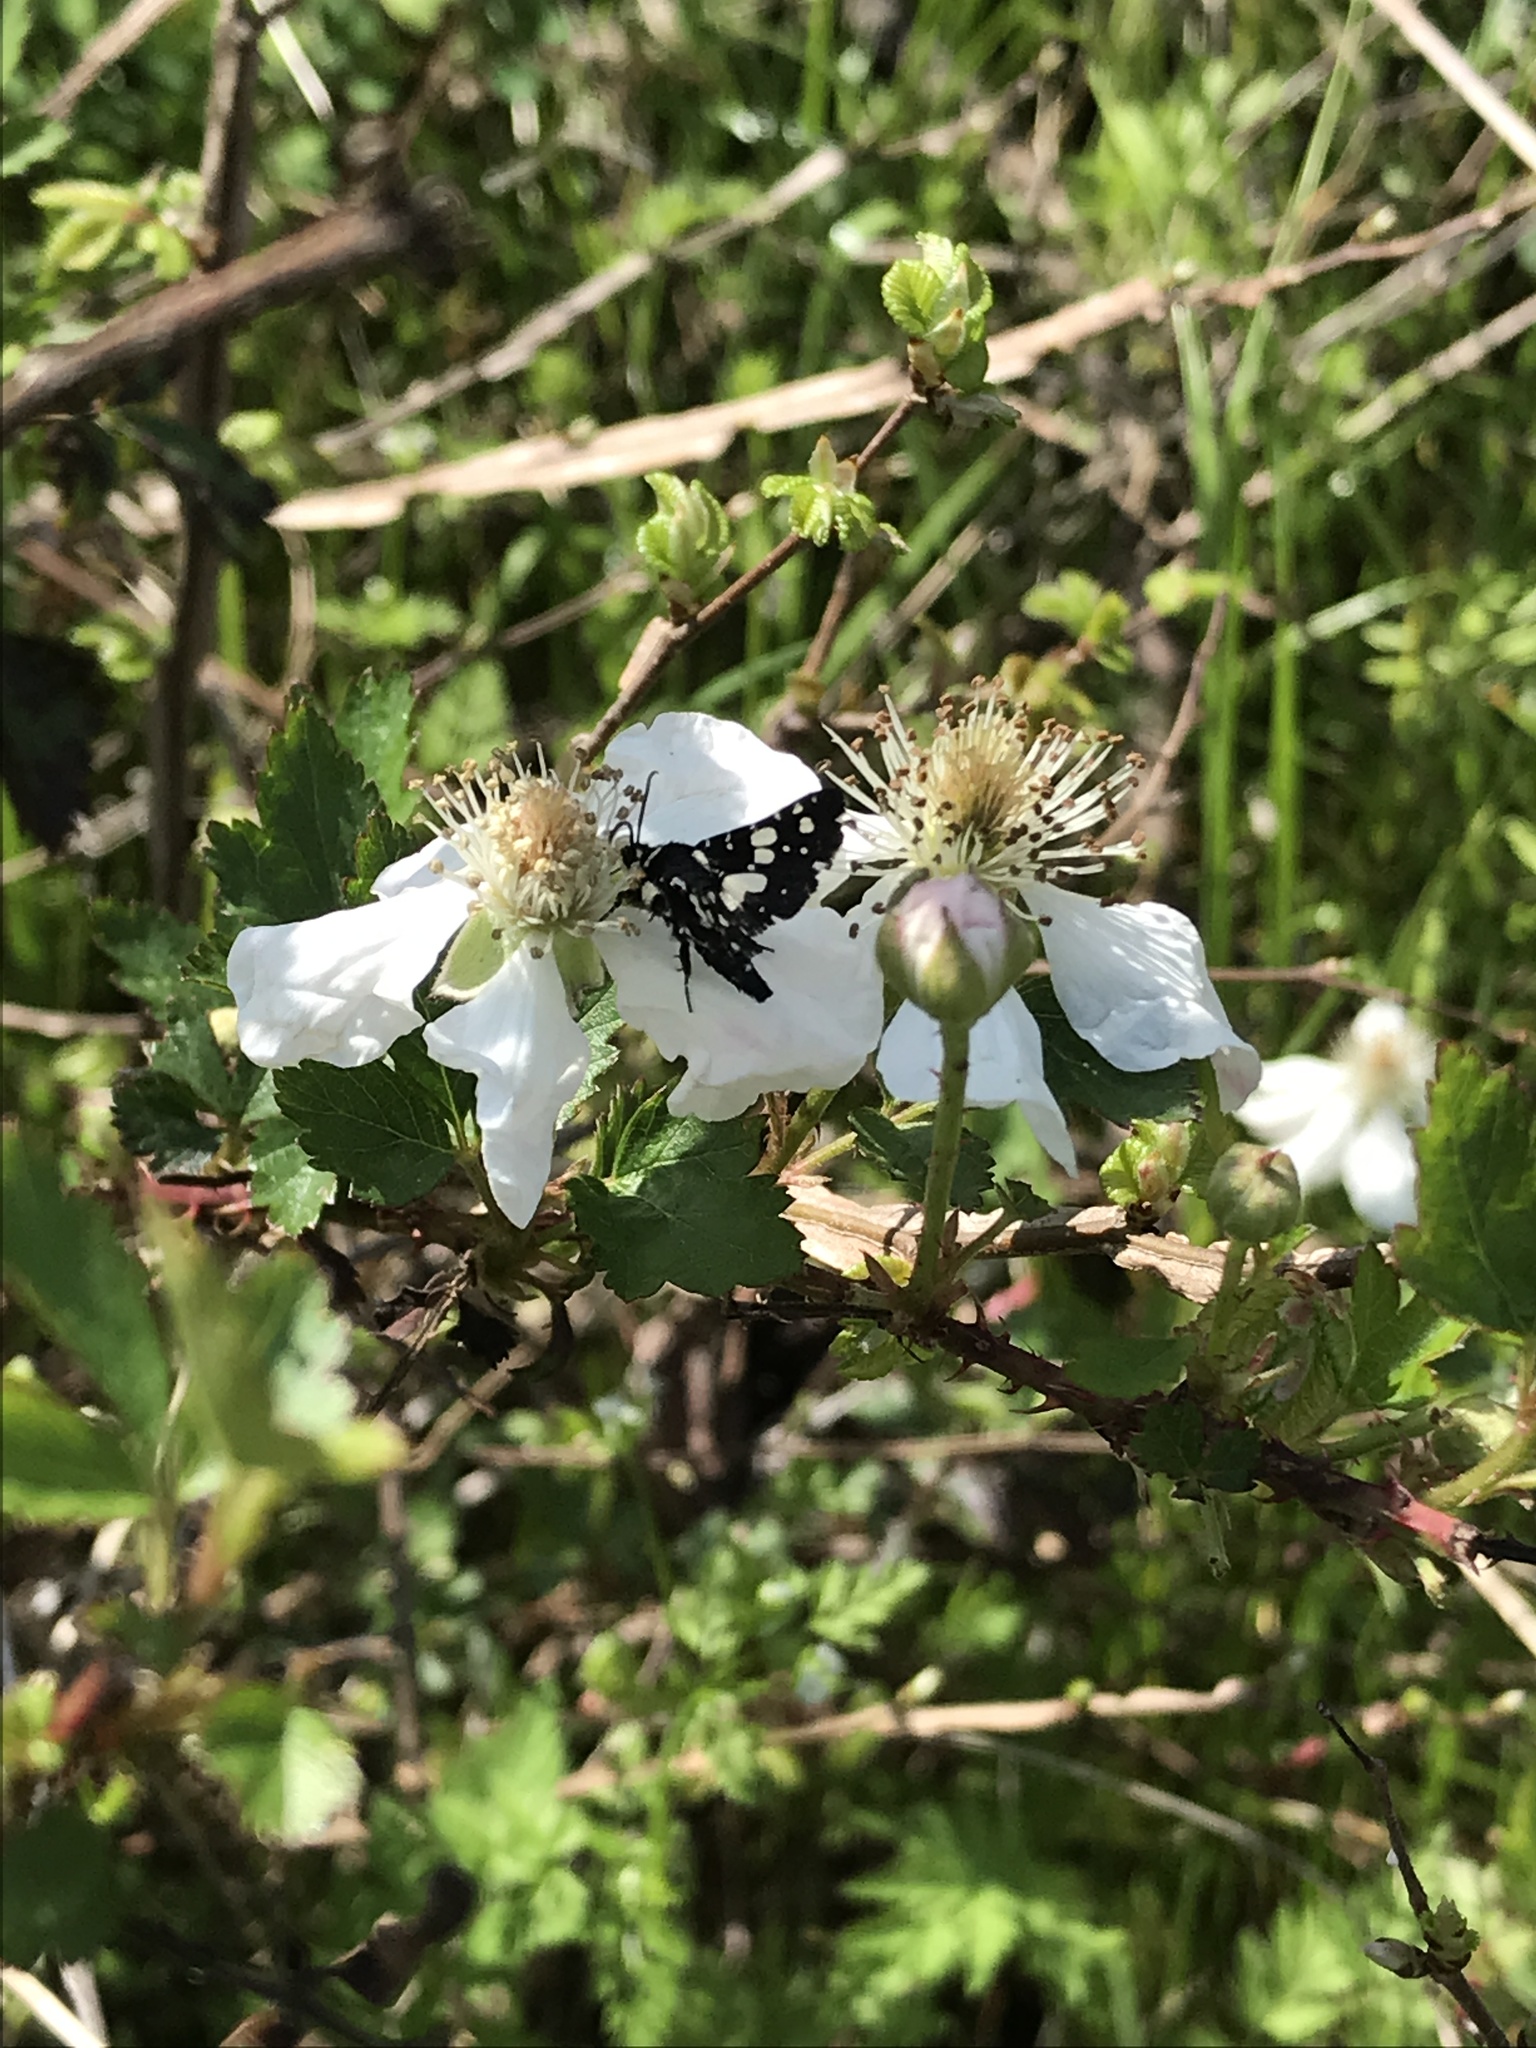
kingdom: Animalia
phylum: Arthropoda
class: Insecta
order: Lepidoptera
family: Thyrididae
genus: Pseudothyris
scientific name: Pseudothyris sepulchralis
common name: Mournful thyris moth
